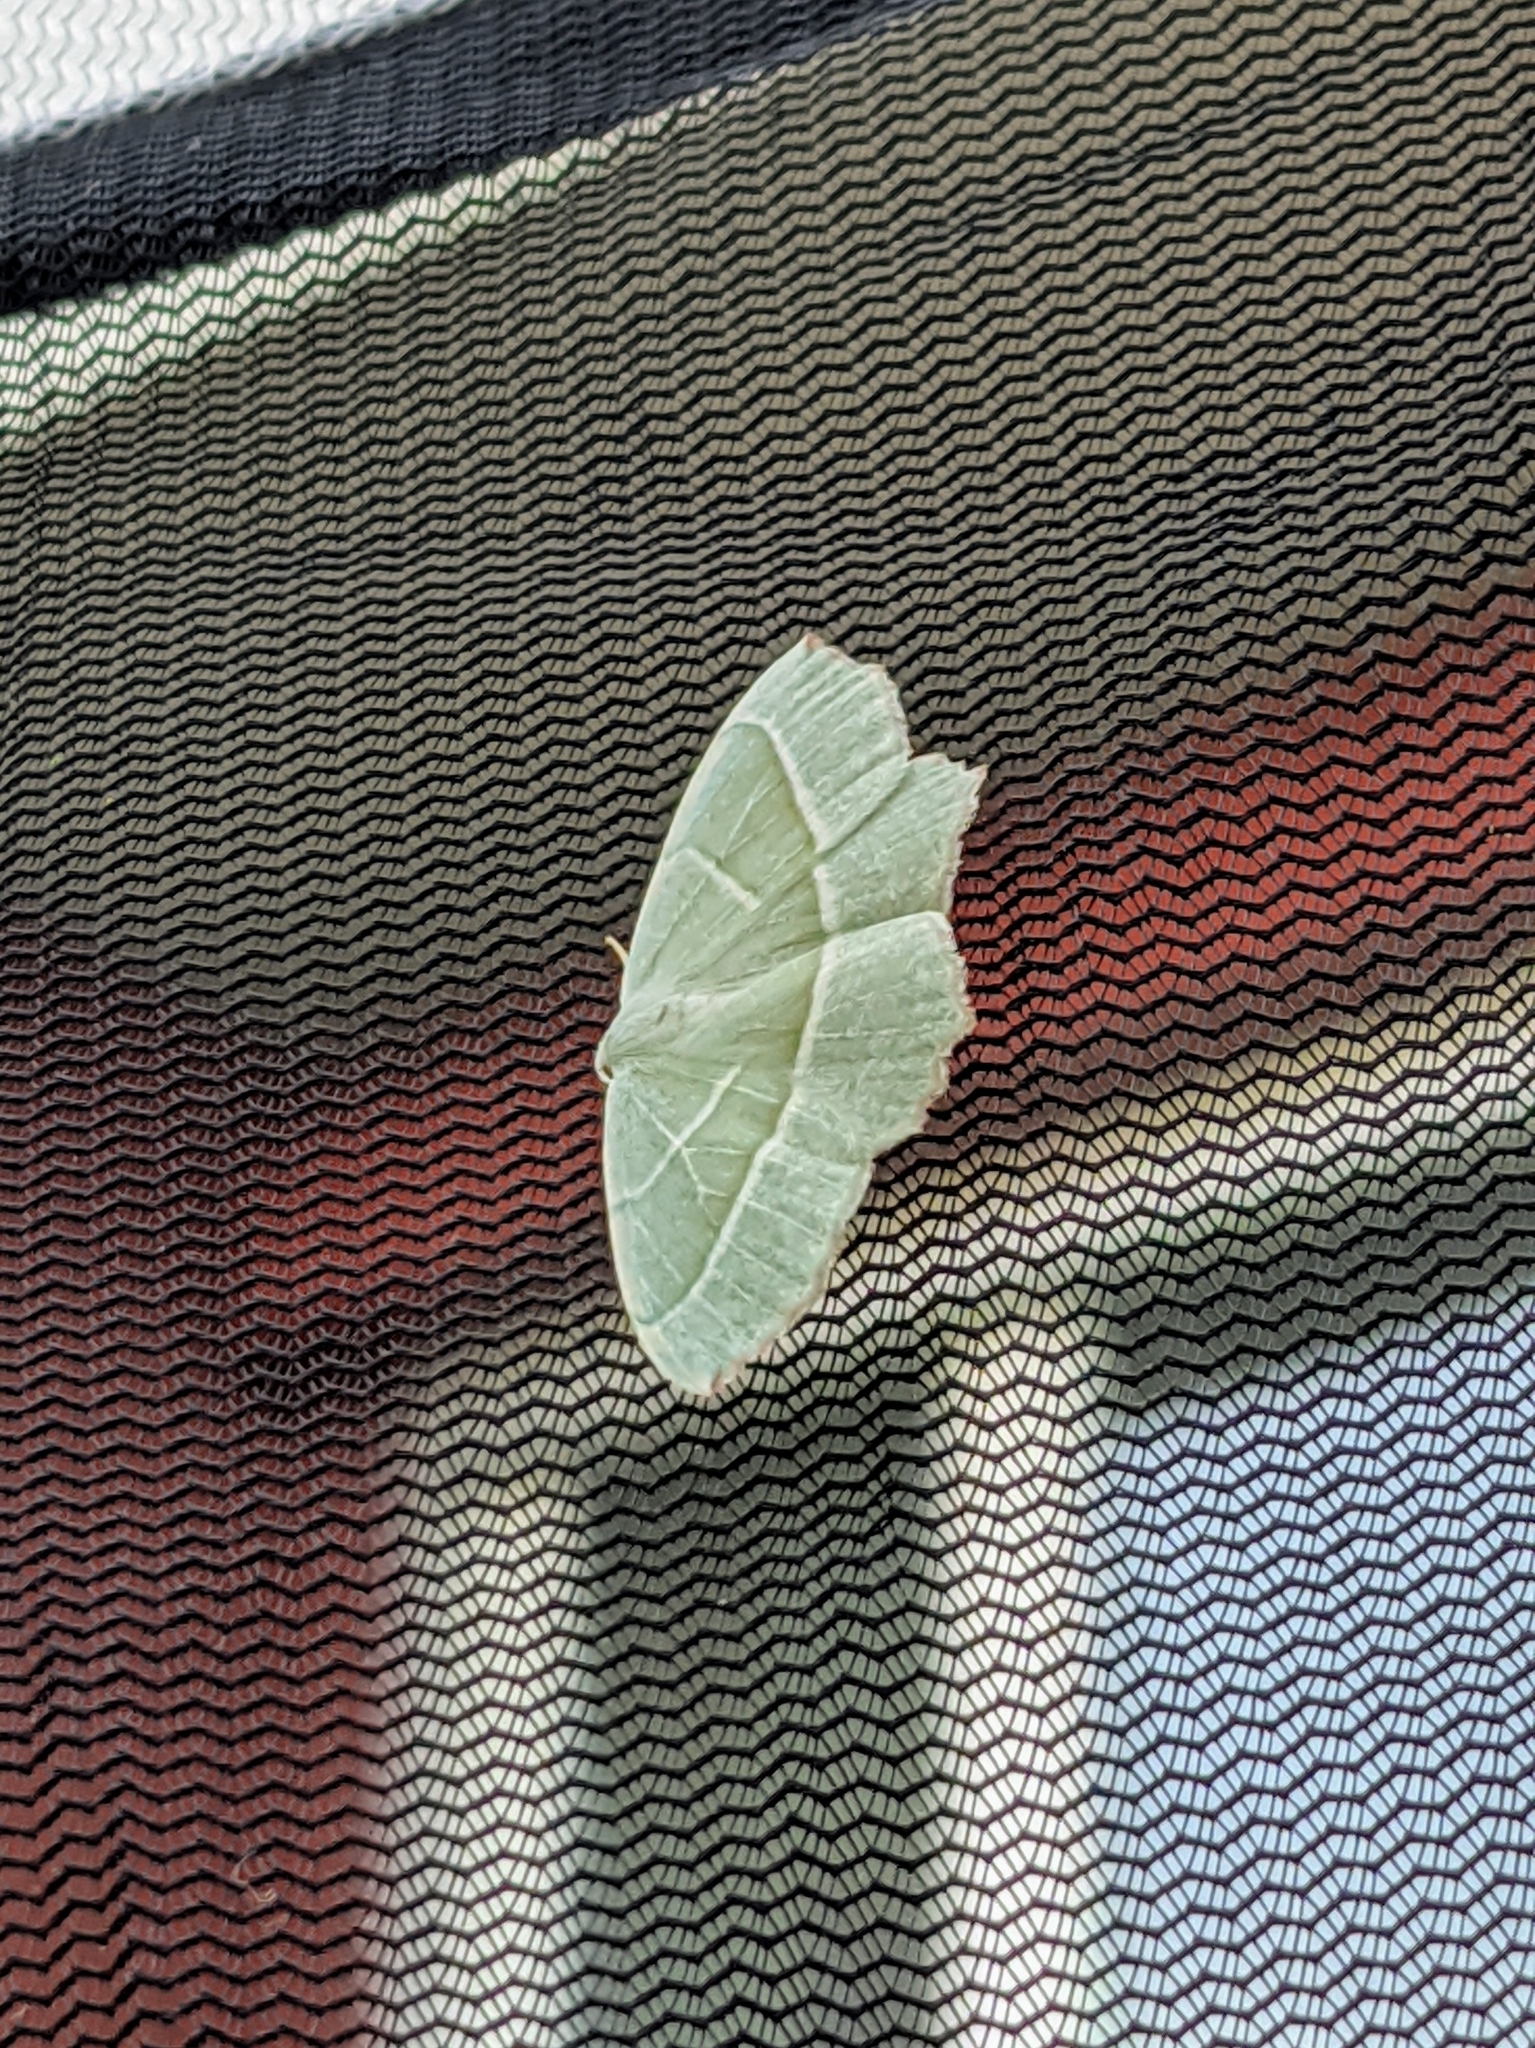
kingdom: Animalia
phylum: Arthropoda
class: Insecta
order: Lepidoptera
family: Geometridae
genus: Campaea
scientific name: Campaea margaritaria
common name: Light emerald
